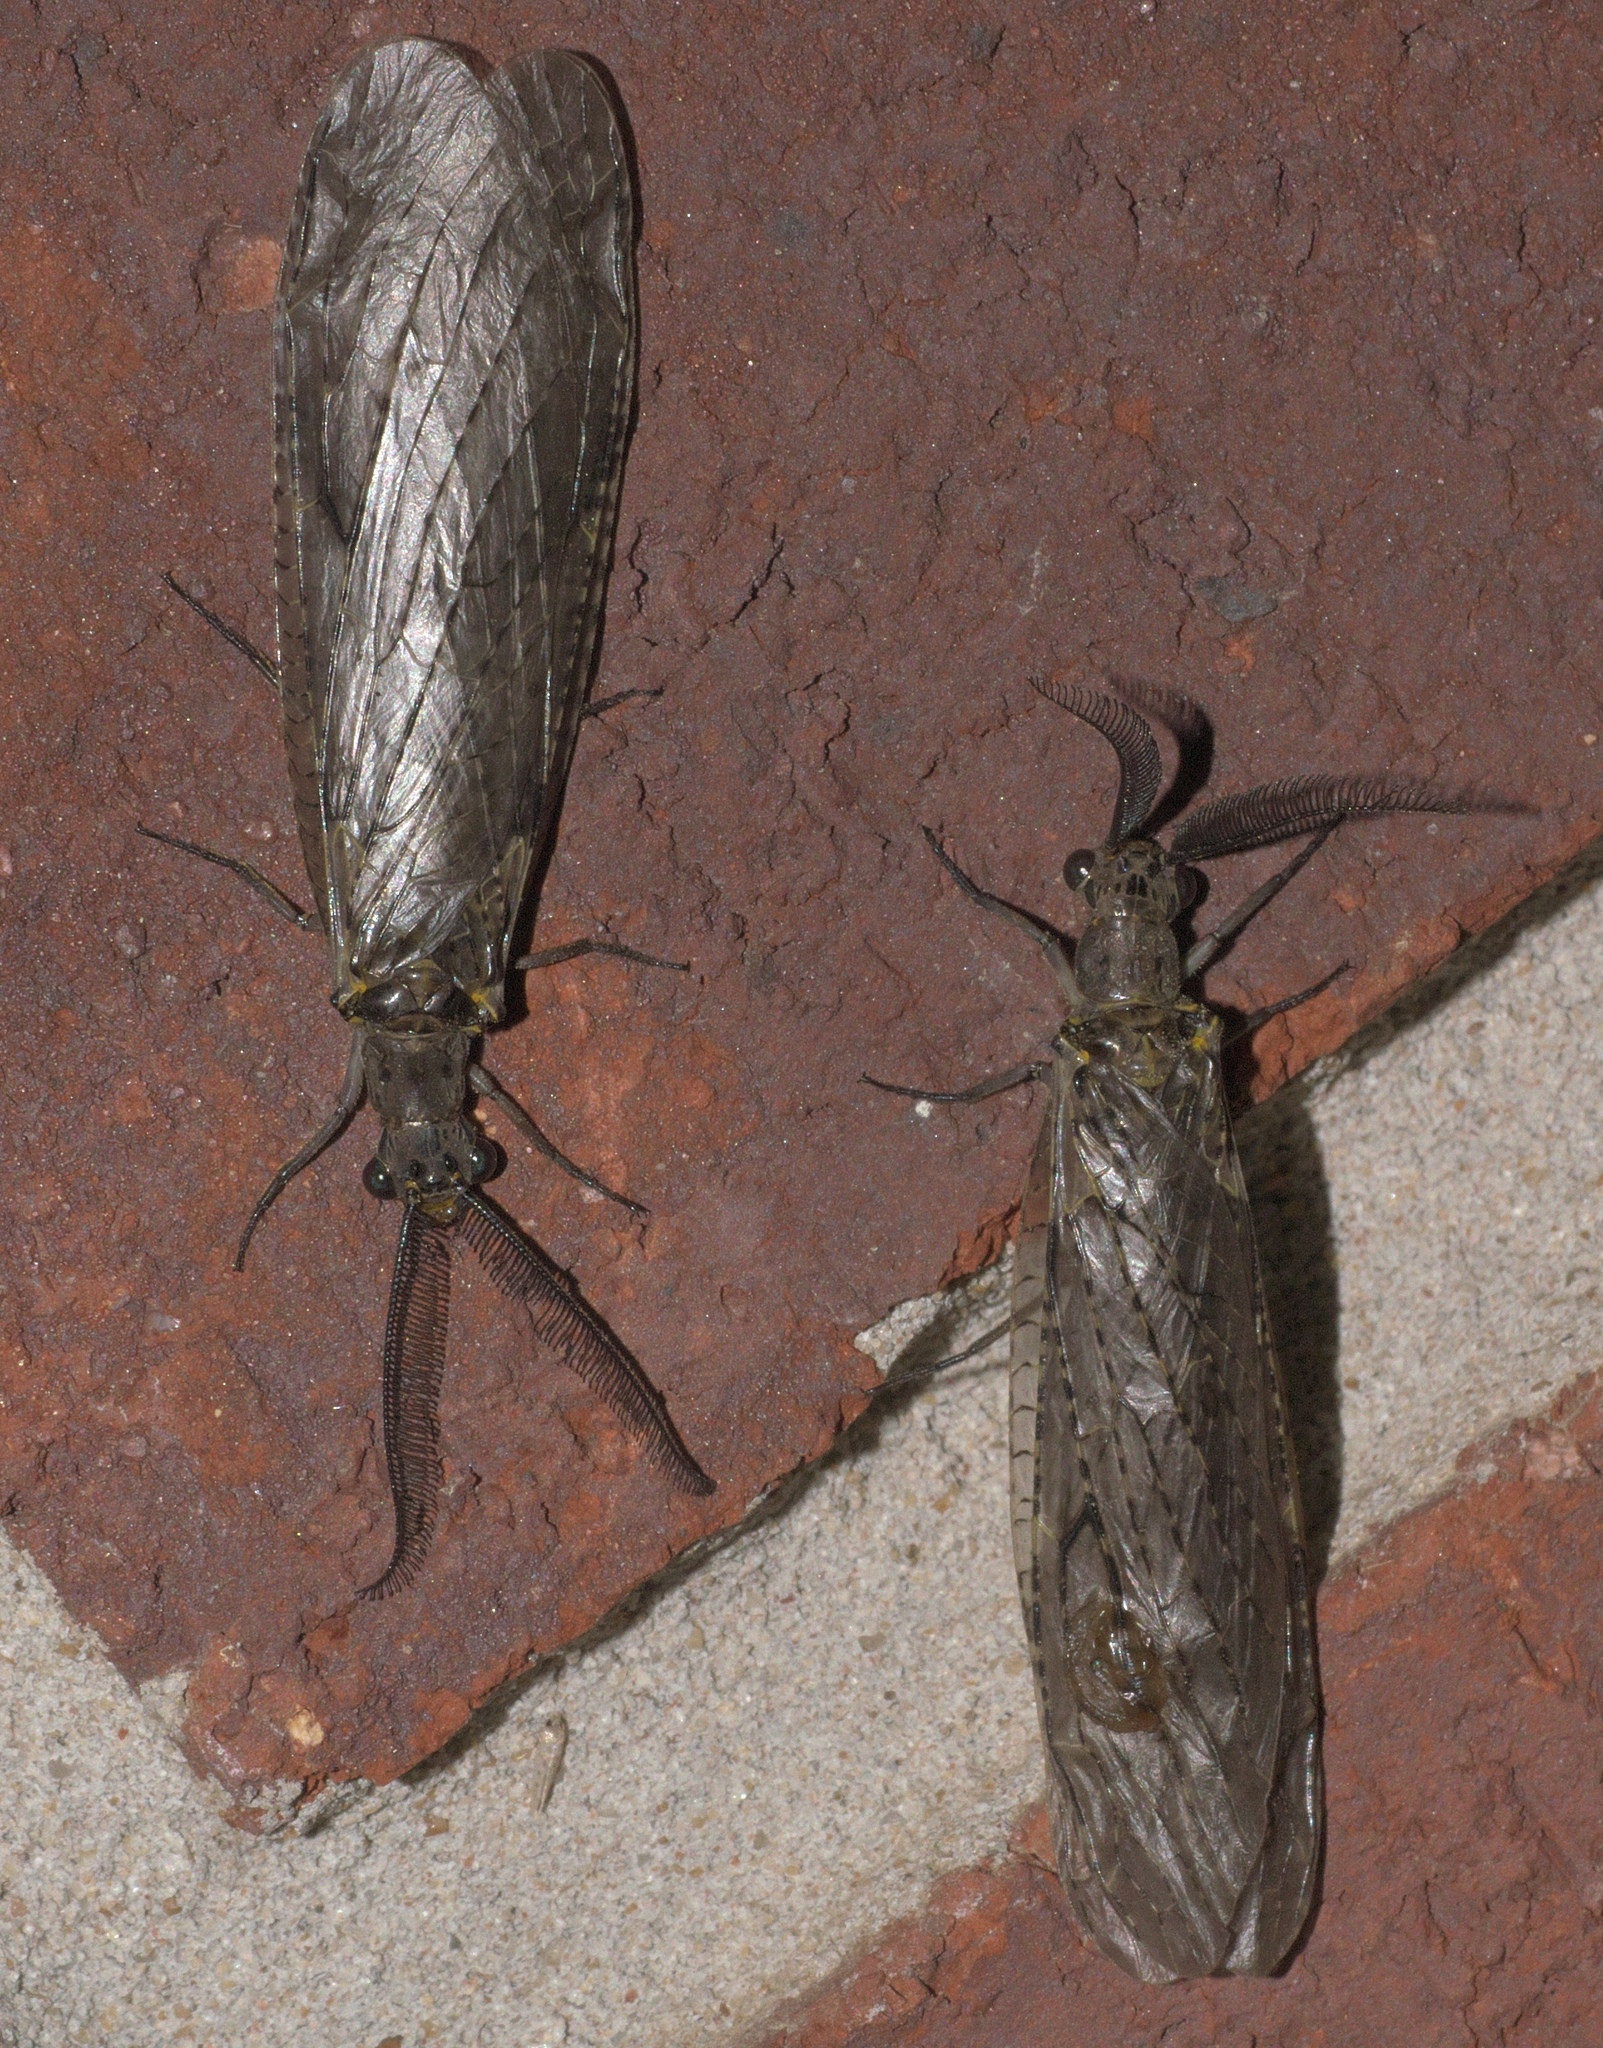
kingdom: Animalia
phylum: Arthropoda
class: Insecta
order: Megaloptera
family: Corydalidae
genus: Chauliodes
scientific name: Chauliodes rastricornis
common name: Spring fishfly
